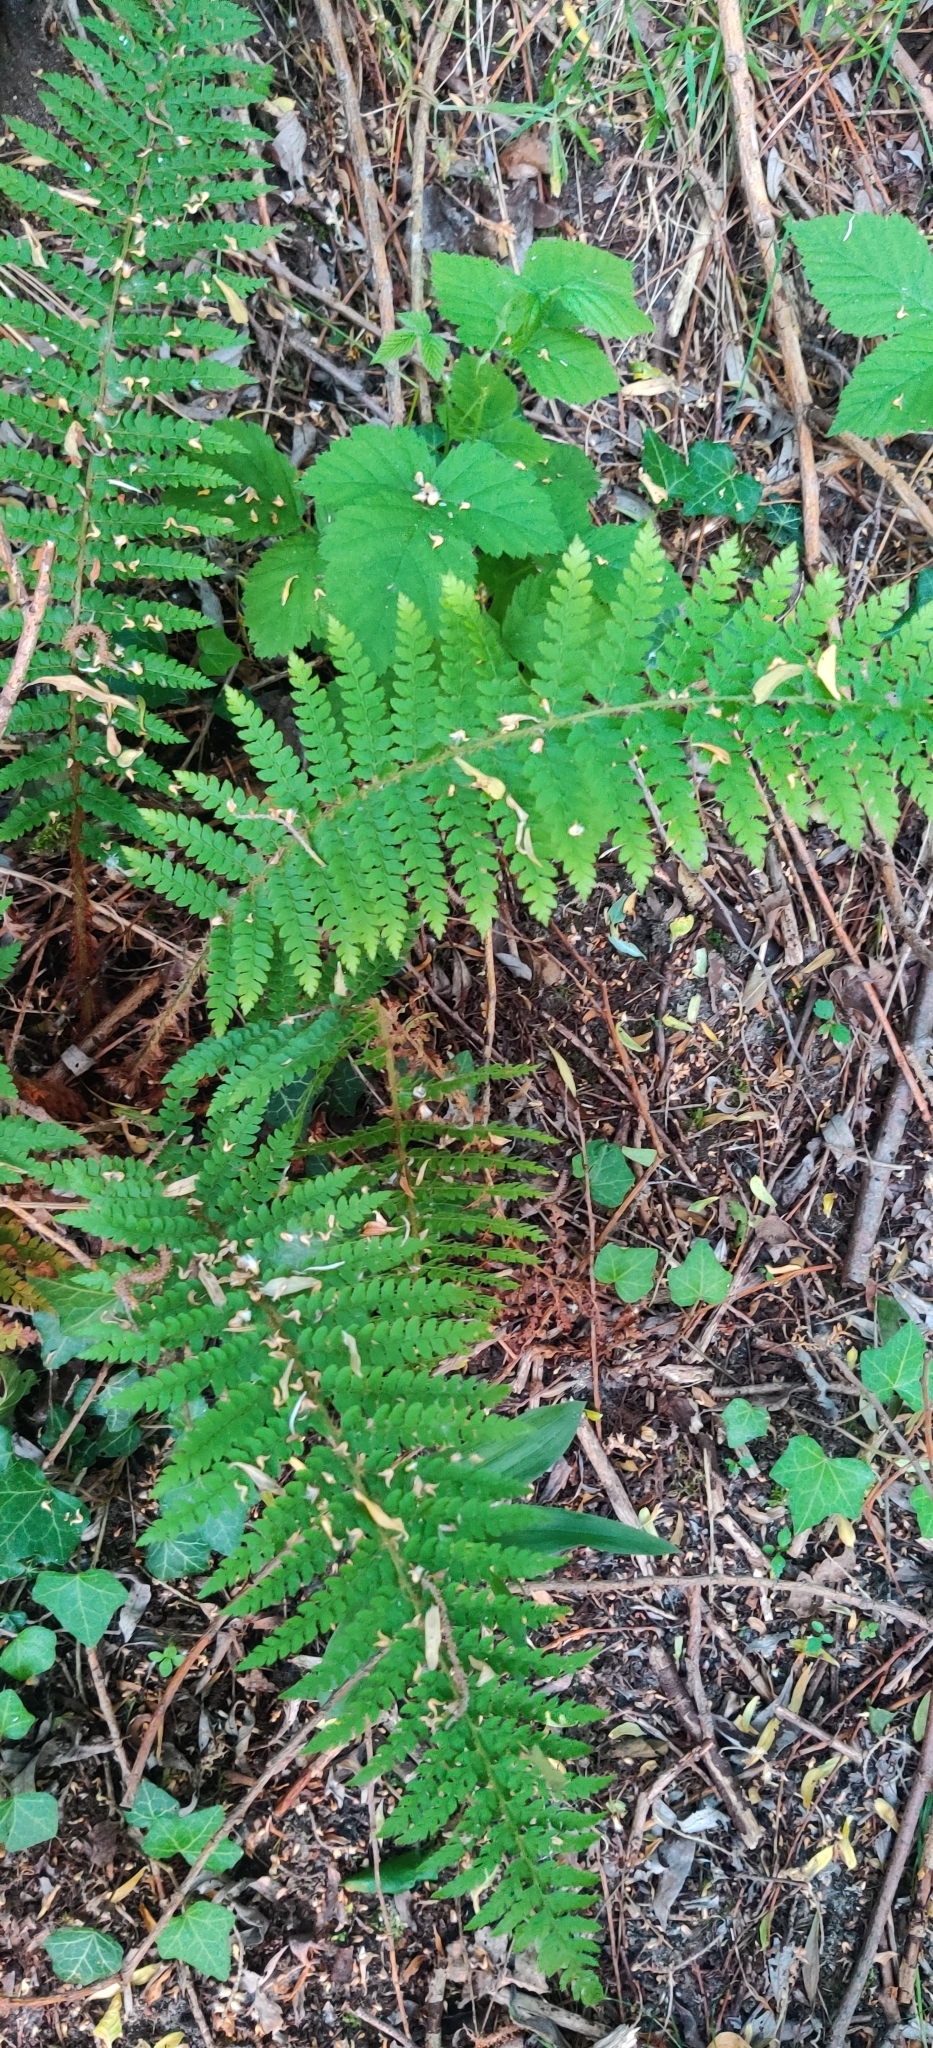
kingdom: Plantae
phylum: Tracheophyta
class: Polypodiopsida
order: Polypodiales
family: Dryopteridaceae
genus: Polystichum
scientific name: Polystichum setiferum
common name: Soft shield-fern
